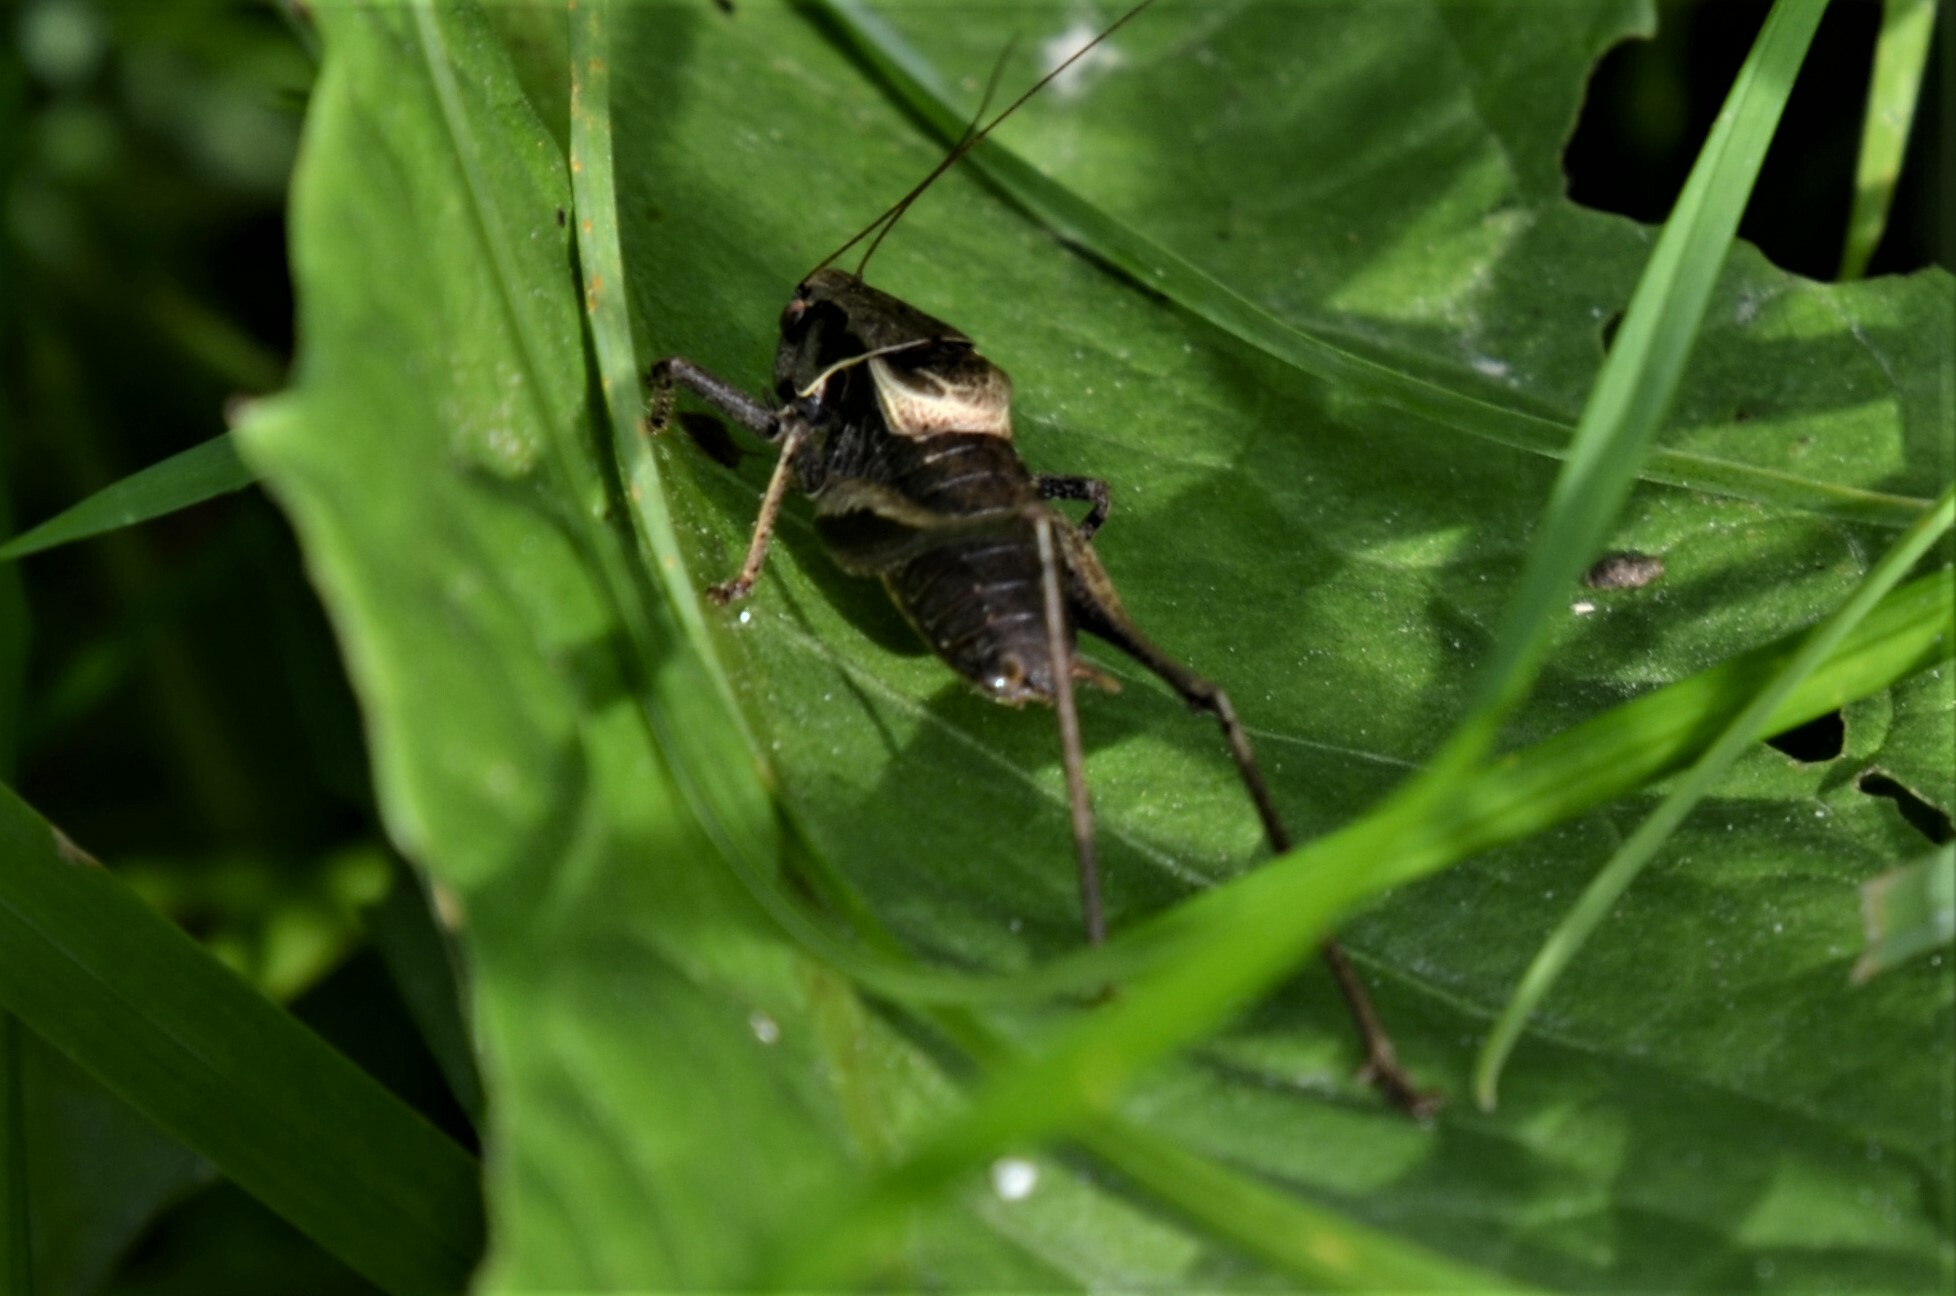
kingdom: Animalia
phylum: Arthropoda
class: Insecta
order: Orthoptera
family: Tettigoniidae
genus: Pholidoptera
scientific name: Pholidoptera griseoaptera
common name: Dark bush-cricket
